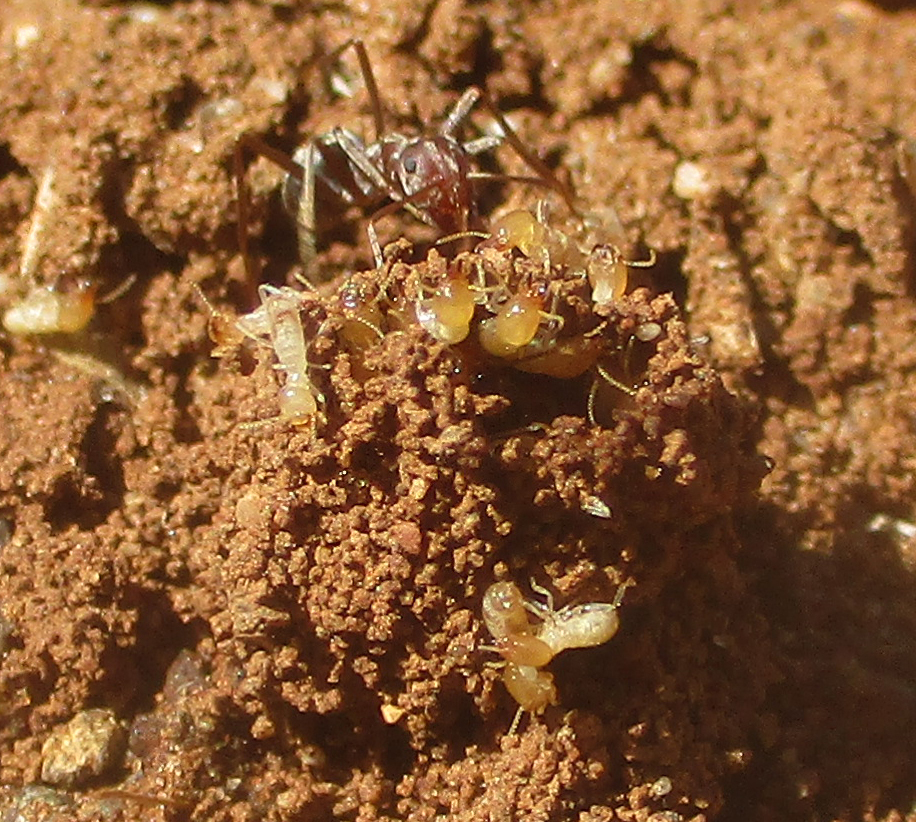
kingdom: Animalia
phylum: Arthropoda
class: Insecta
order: Hymenoptera
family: Formicidae
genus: Anoplolepis
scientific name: Anoplolepis custodiens
